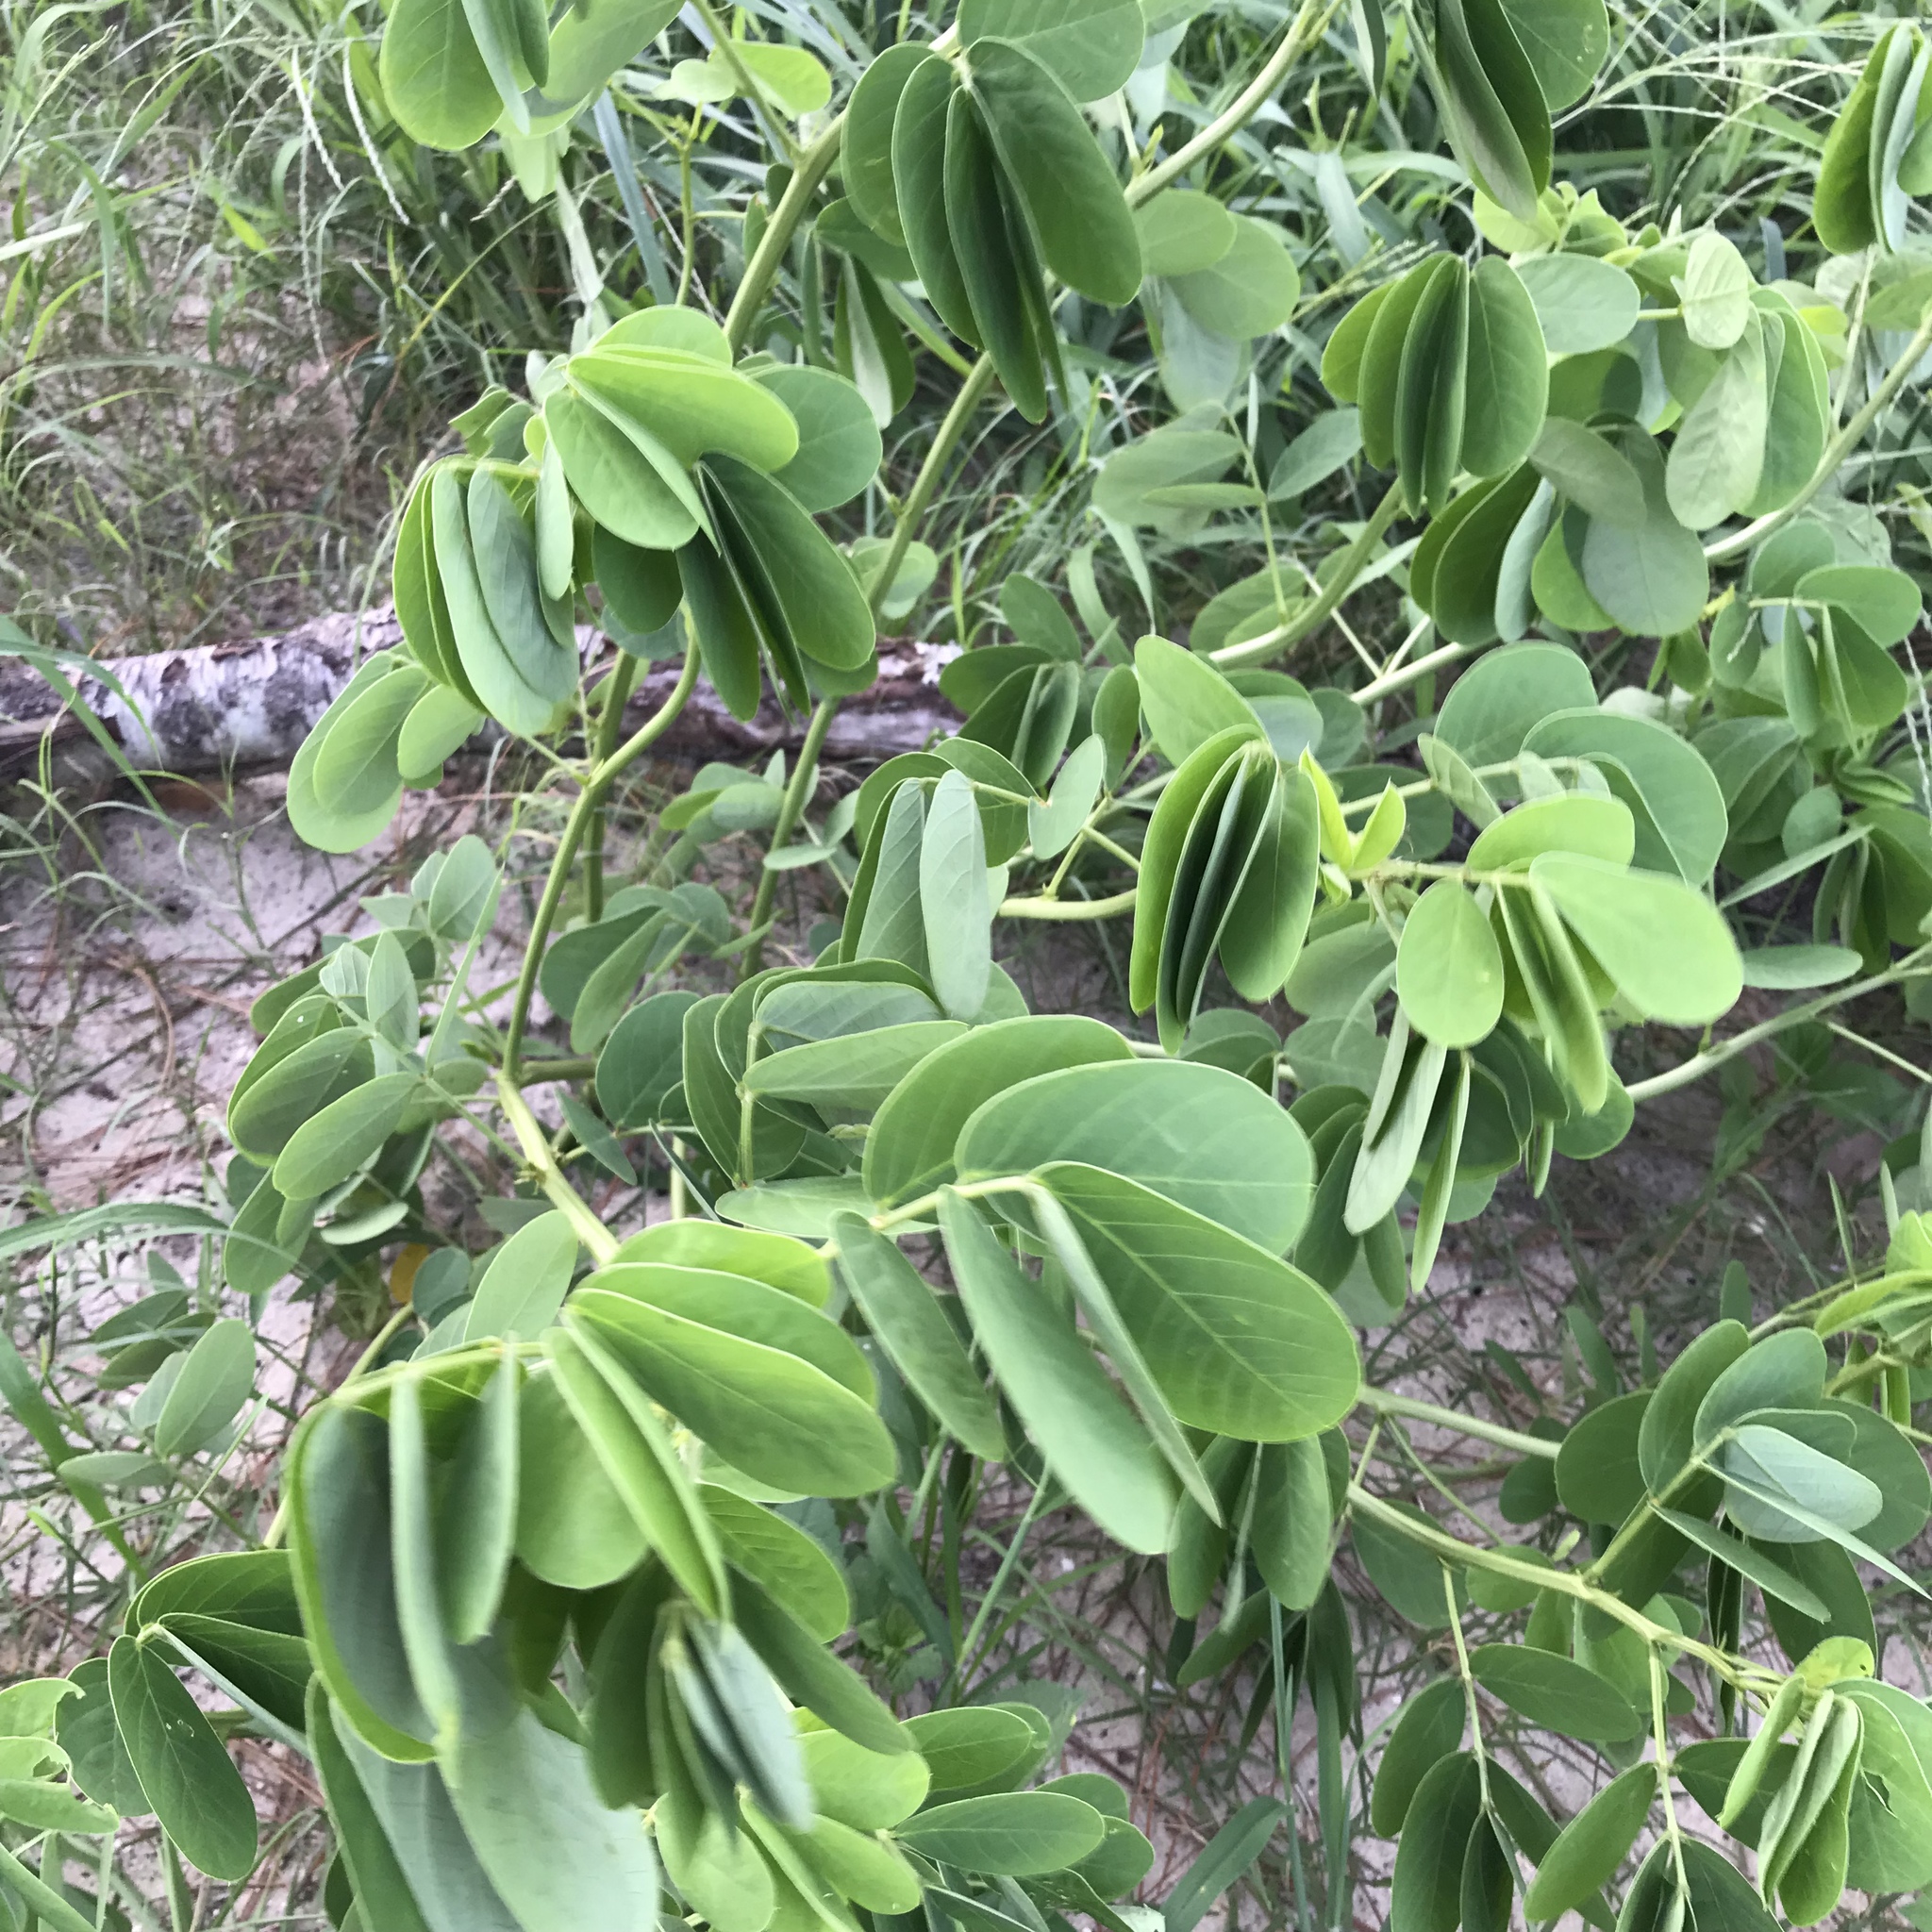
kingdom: Plantae
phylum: Tracheophyta
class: Magnoliopsida
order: Fabales
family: Fabaceae
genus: Senna
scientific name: Senna obtusifolia
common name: Java-bean
